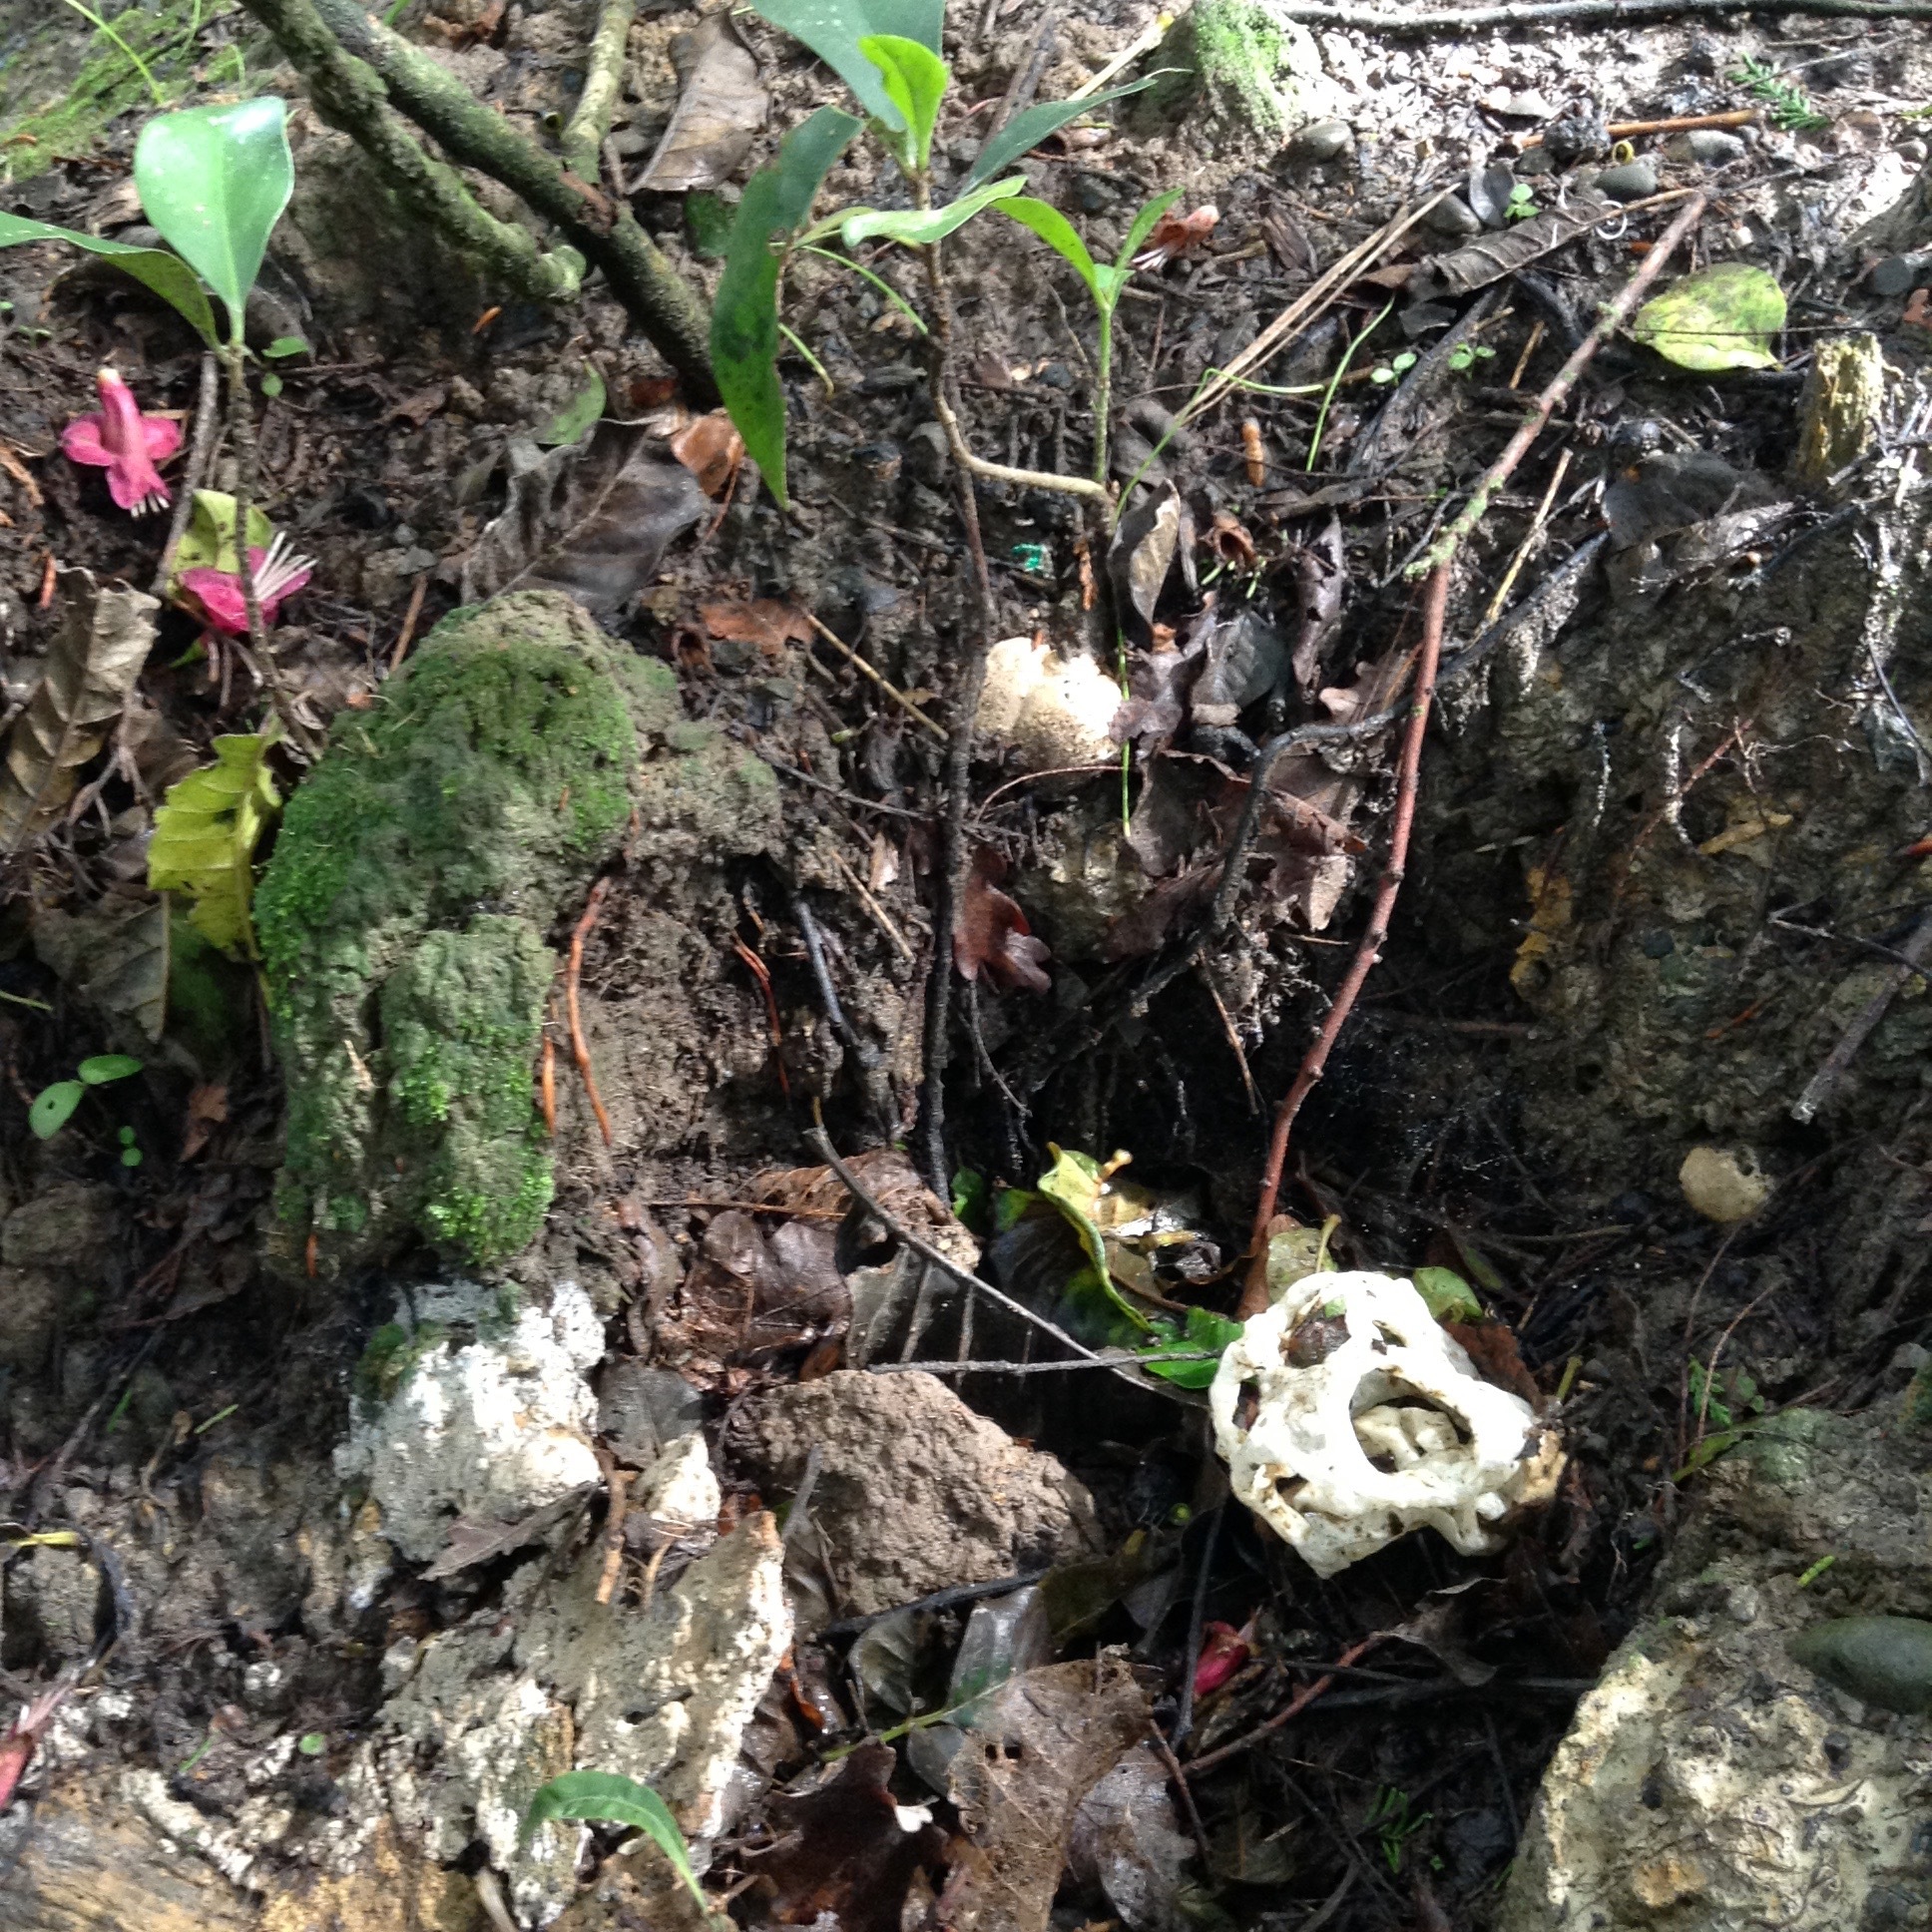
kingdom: Fungi
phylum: Basidiomycota
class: Agaricomycetes
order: Phallales
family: Phallaceae
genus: Ileodictyon
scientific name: Ileodictyon cibarium
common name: Basket fungus
